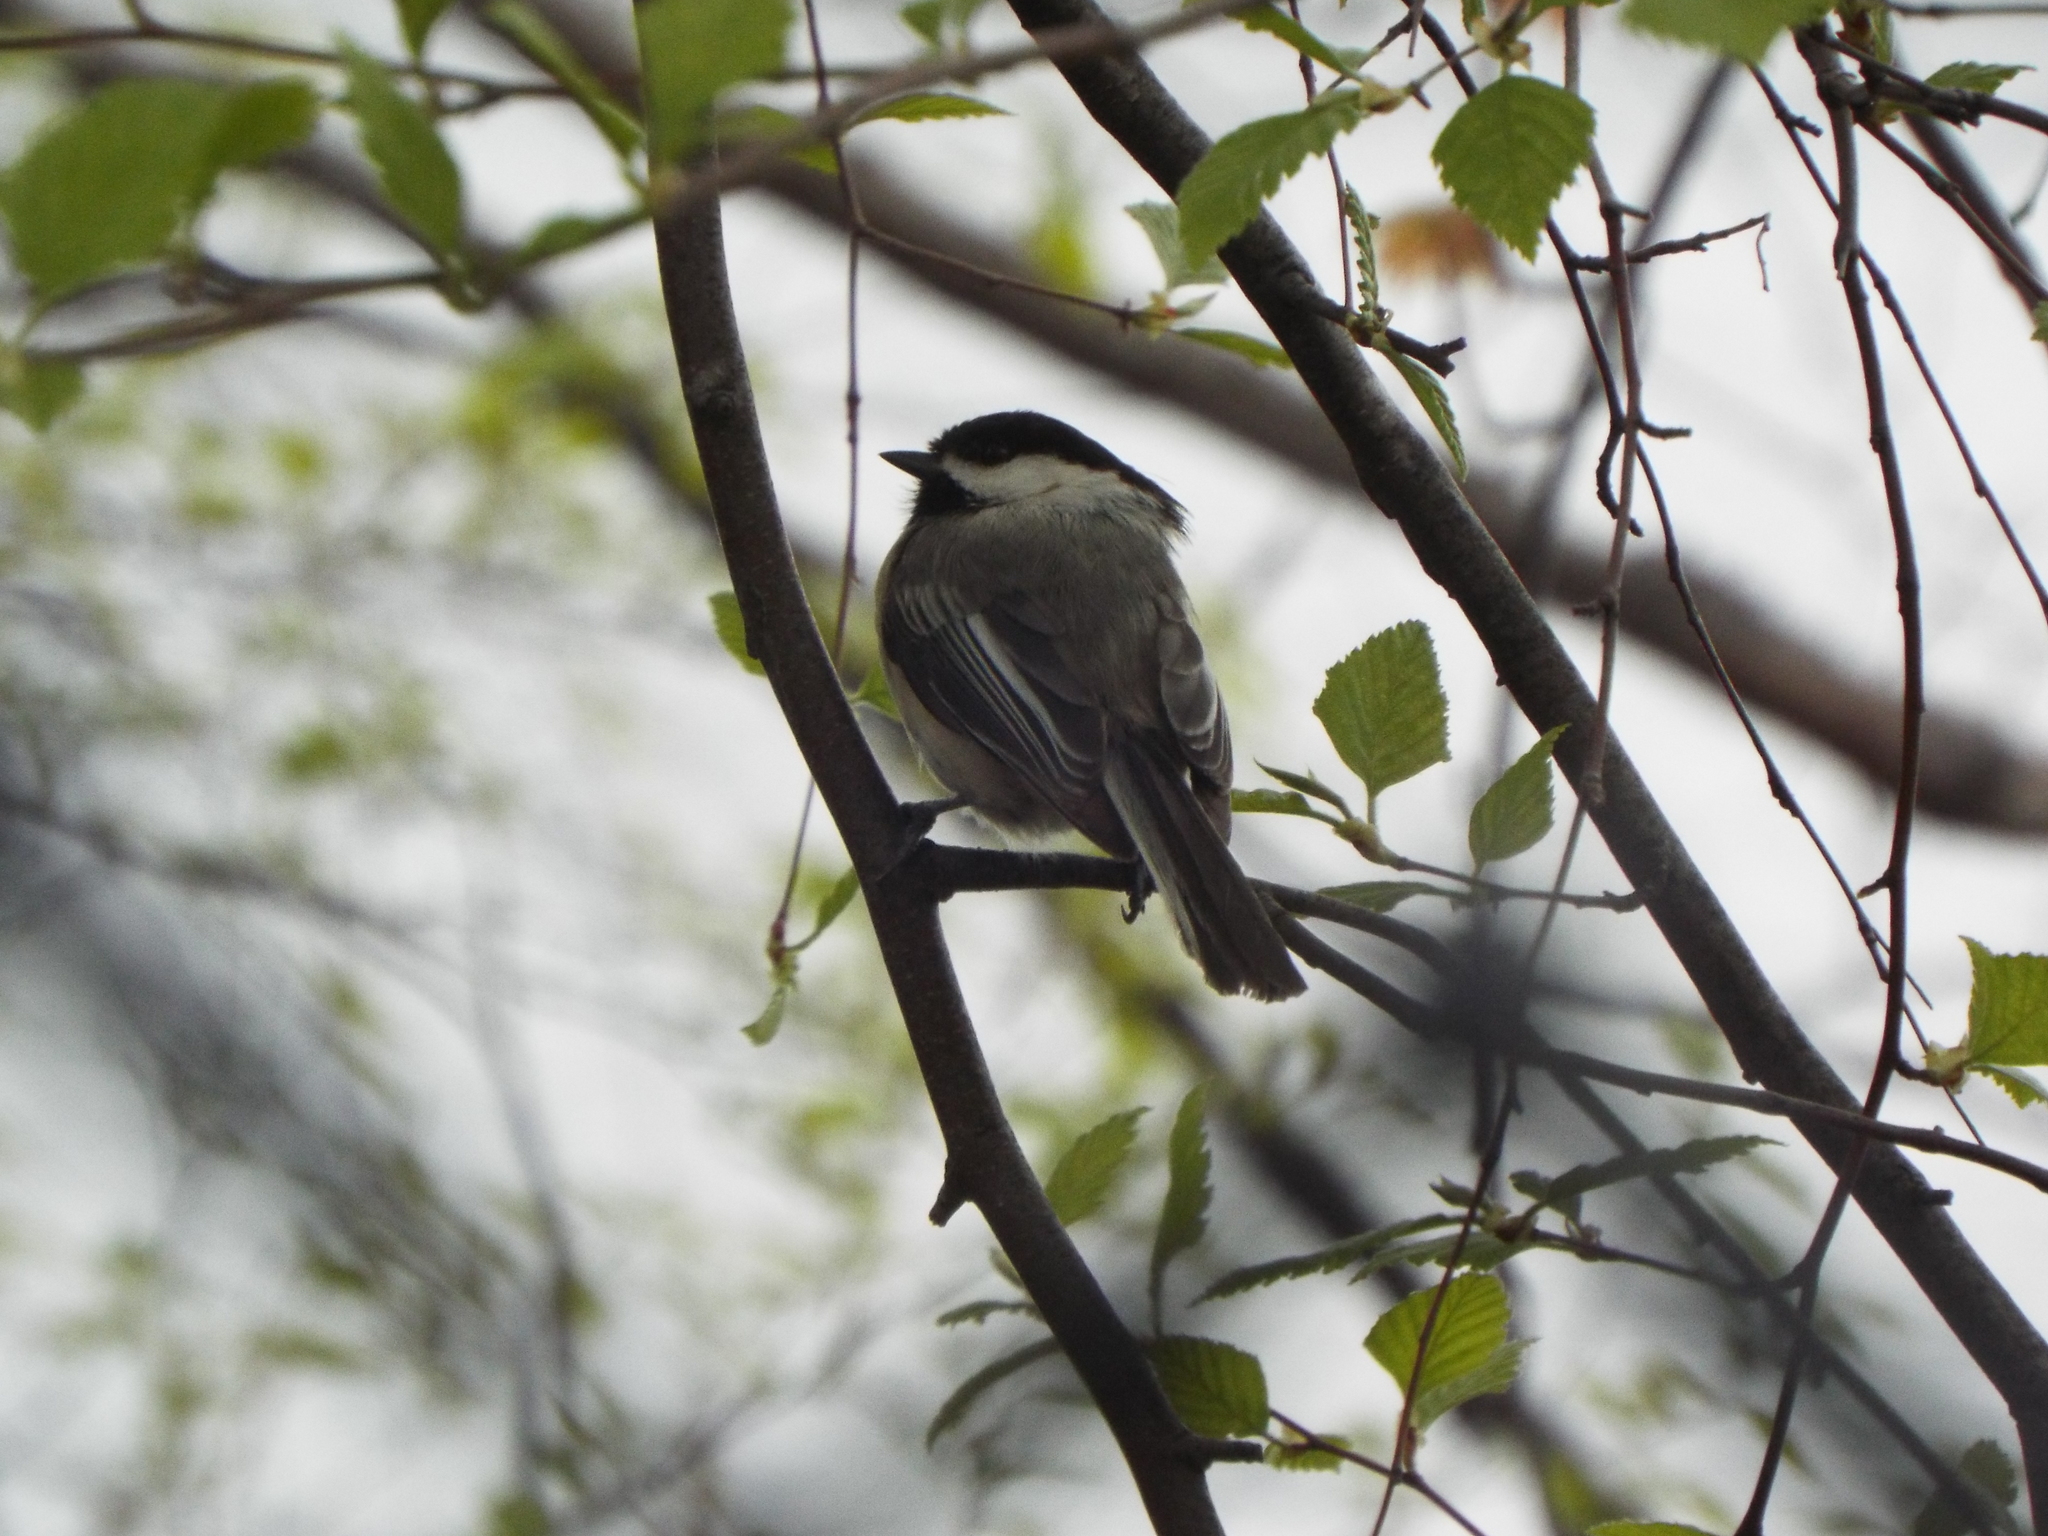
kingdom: Animalia
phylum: Chordata
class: Aves
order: Passeriformes
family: Paridae
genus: Poecile
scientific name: Poecile atricapillus
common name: Black-capped chickadee
